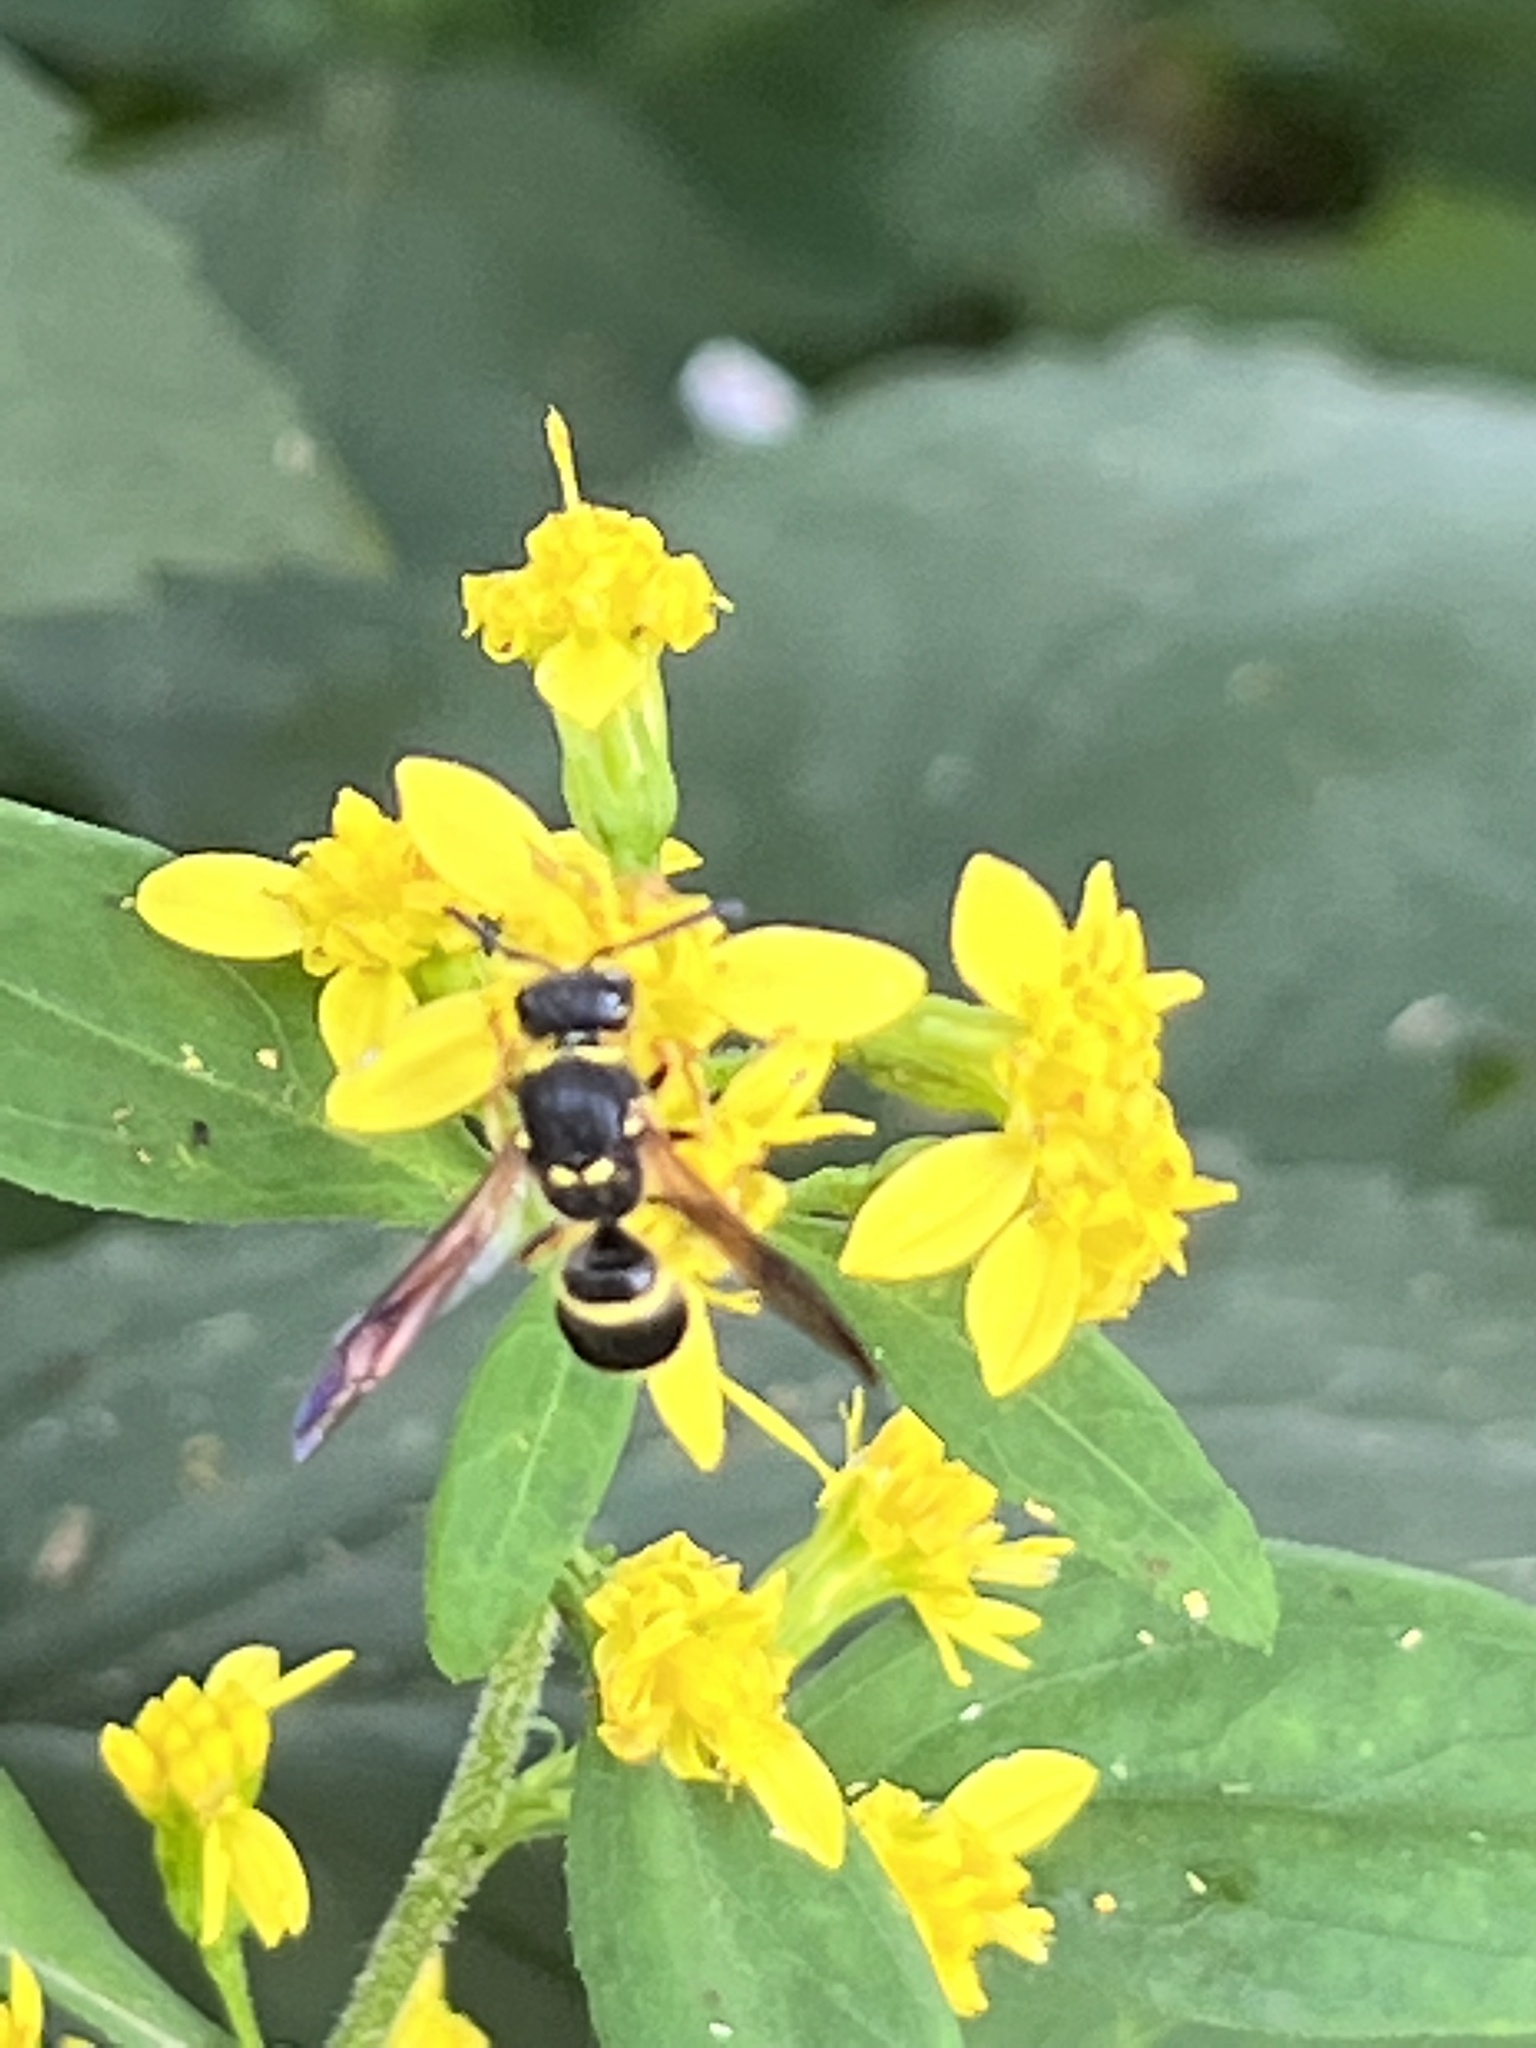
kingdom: Animalia
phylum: Arthropoda
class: Insecta
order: Hymenoptera
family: Vespidae
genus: Ancistrocerus
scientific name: Ancistrocerus
